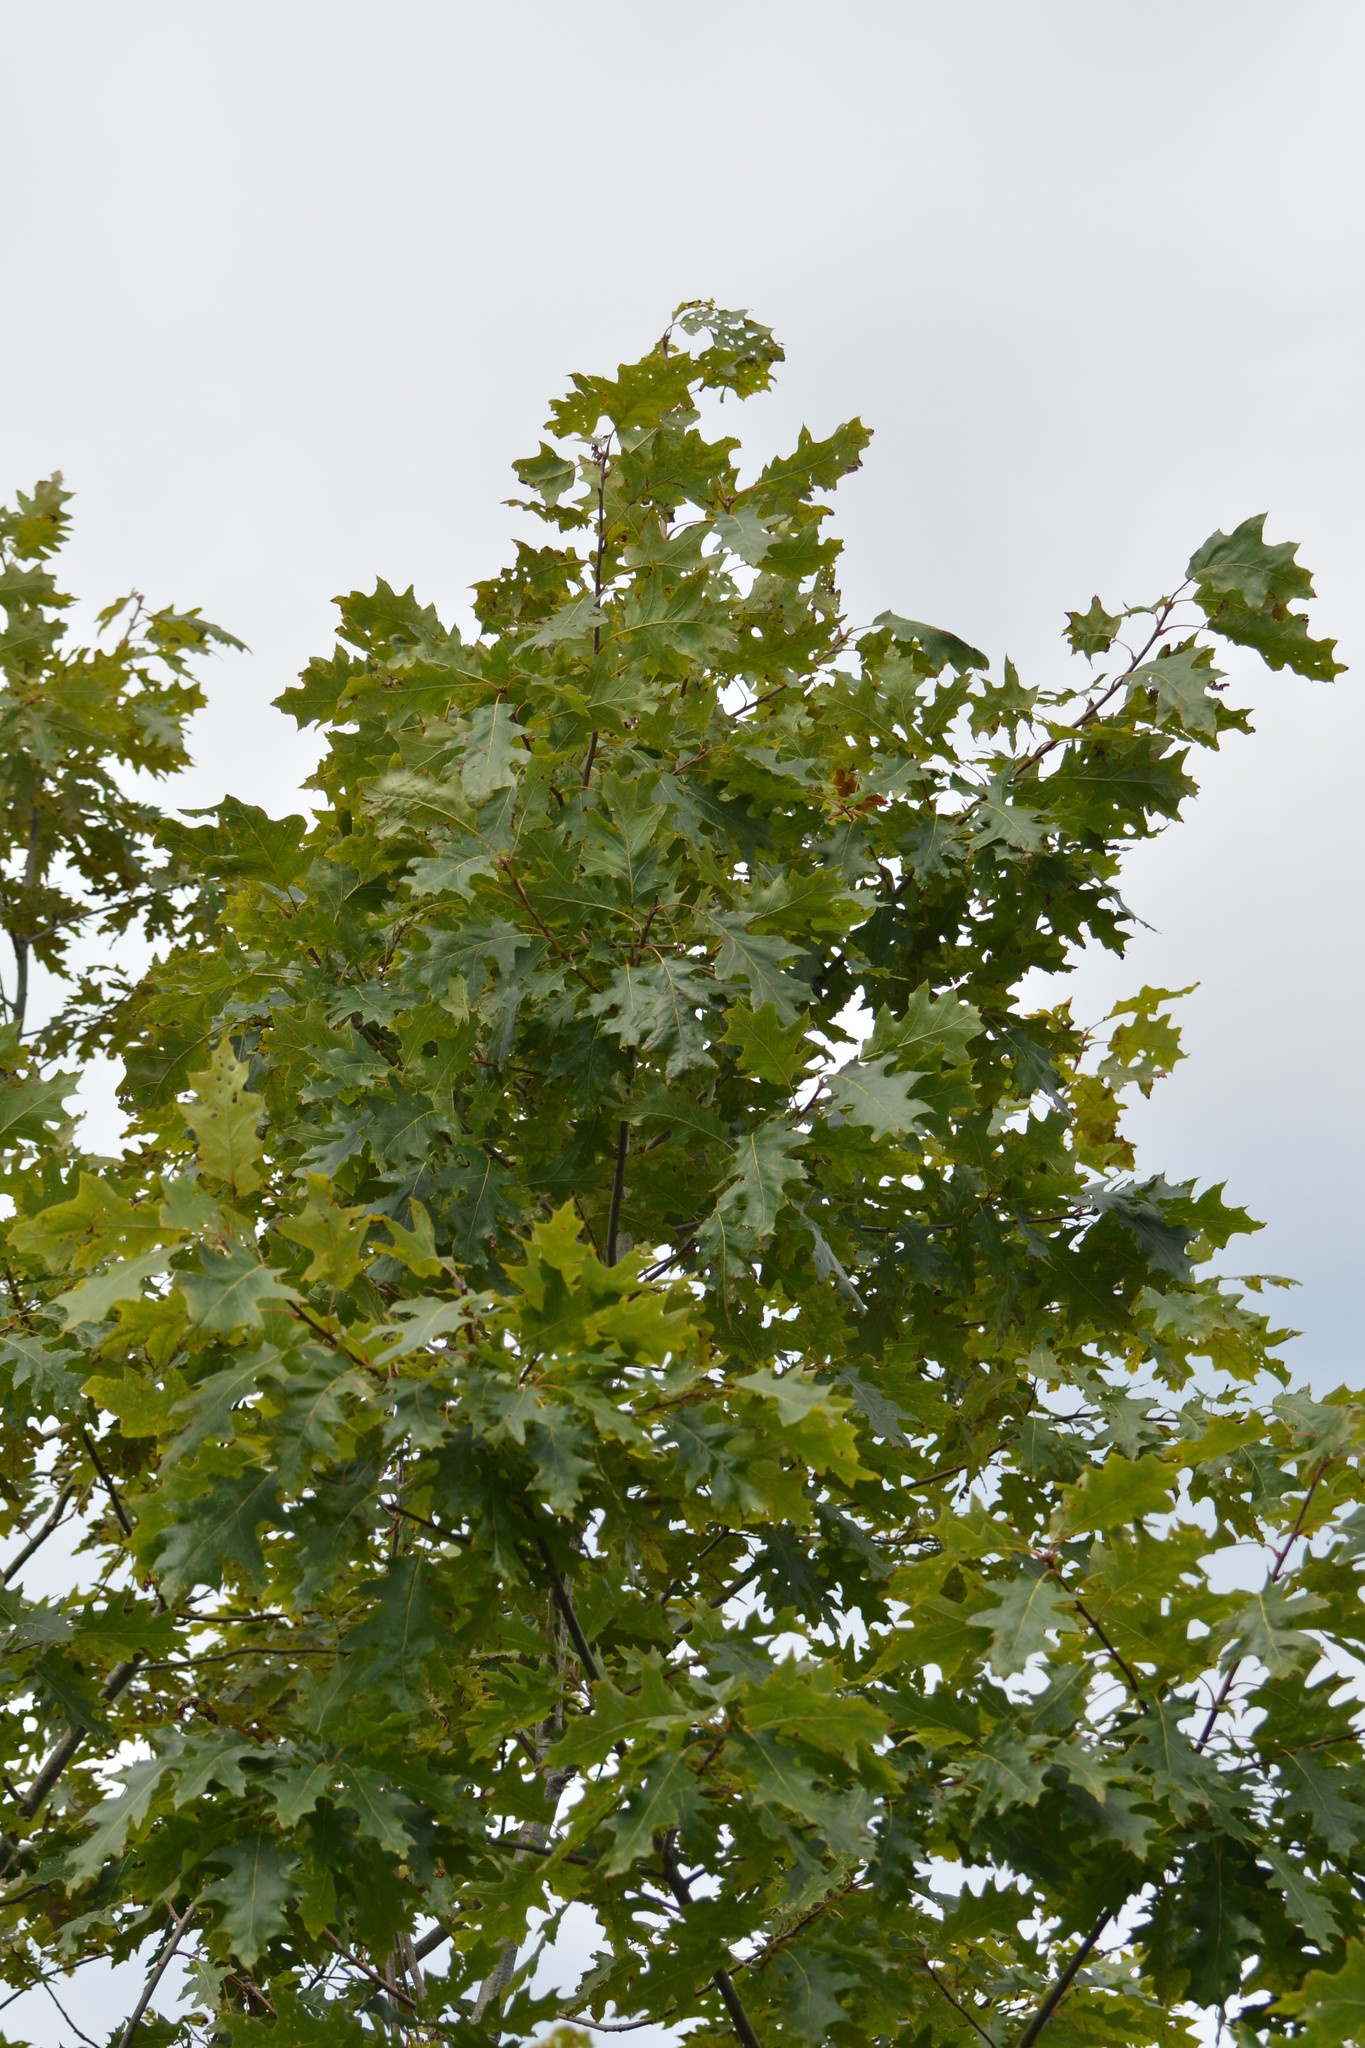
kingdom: Plantae
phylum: Tracheophyta
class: Magnoliopsida
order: Fagales
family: Fagaceae
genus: Quercus
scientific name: Quercus rubra
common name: Red oak
